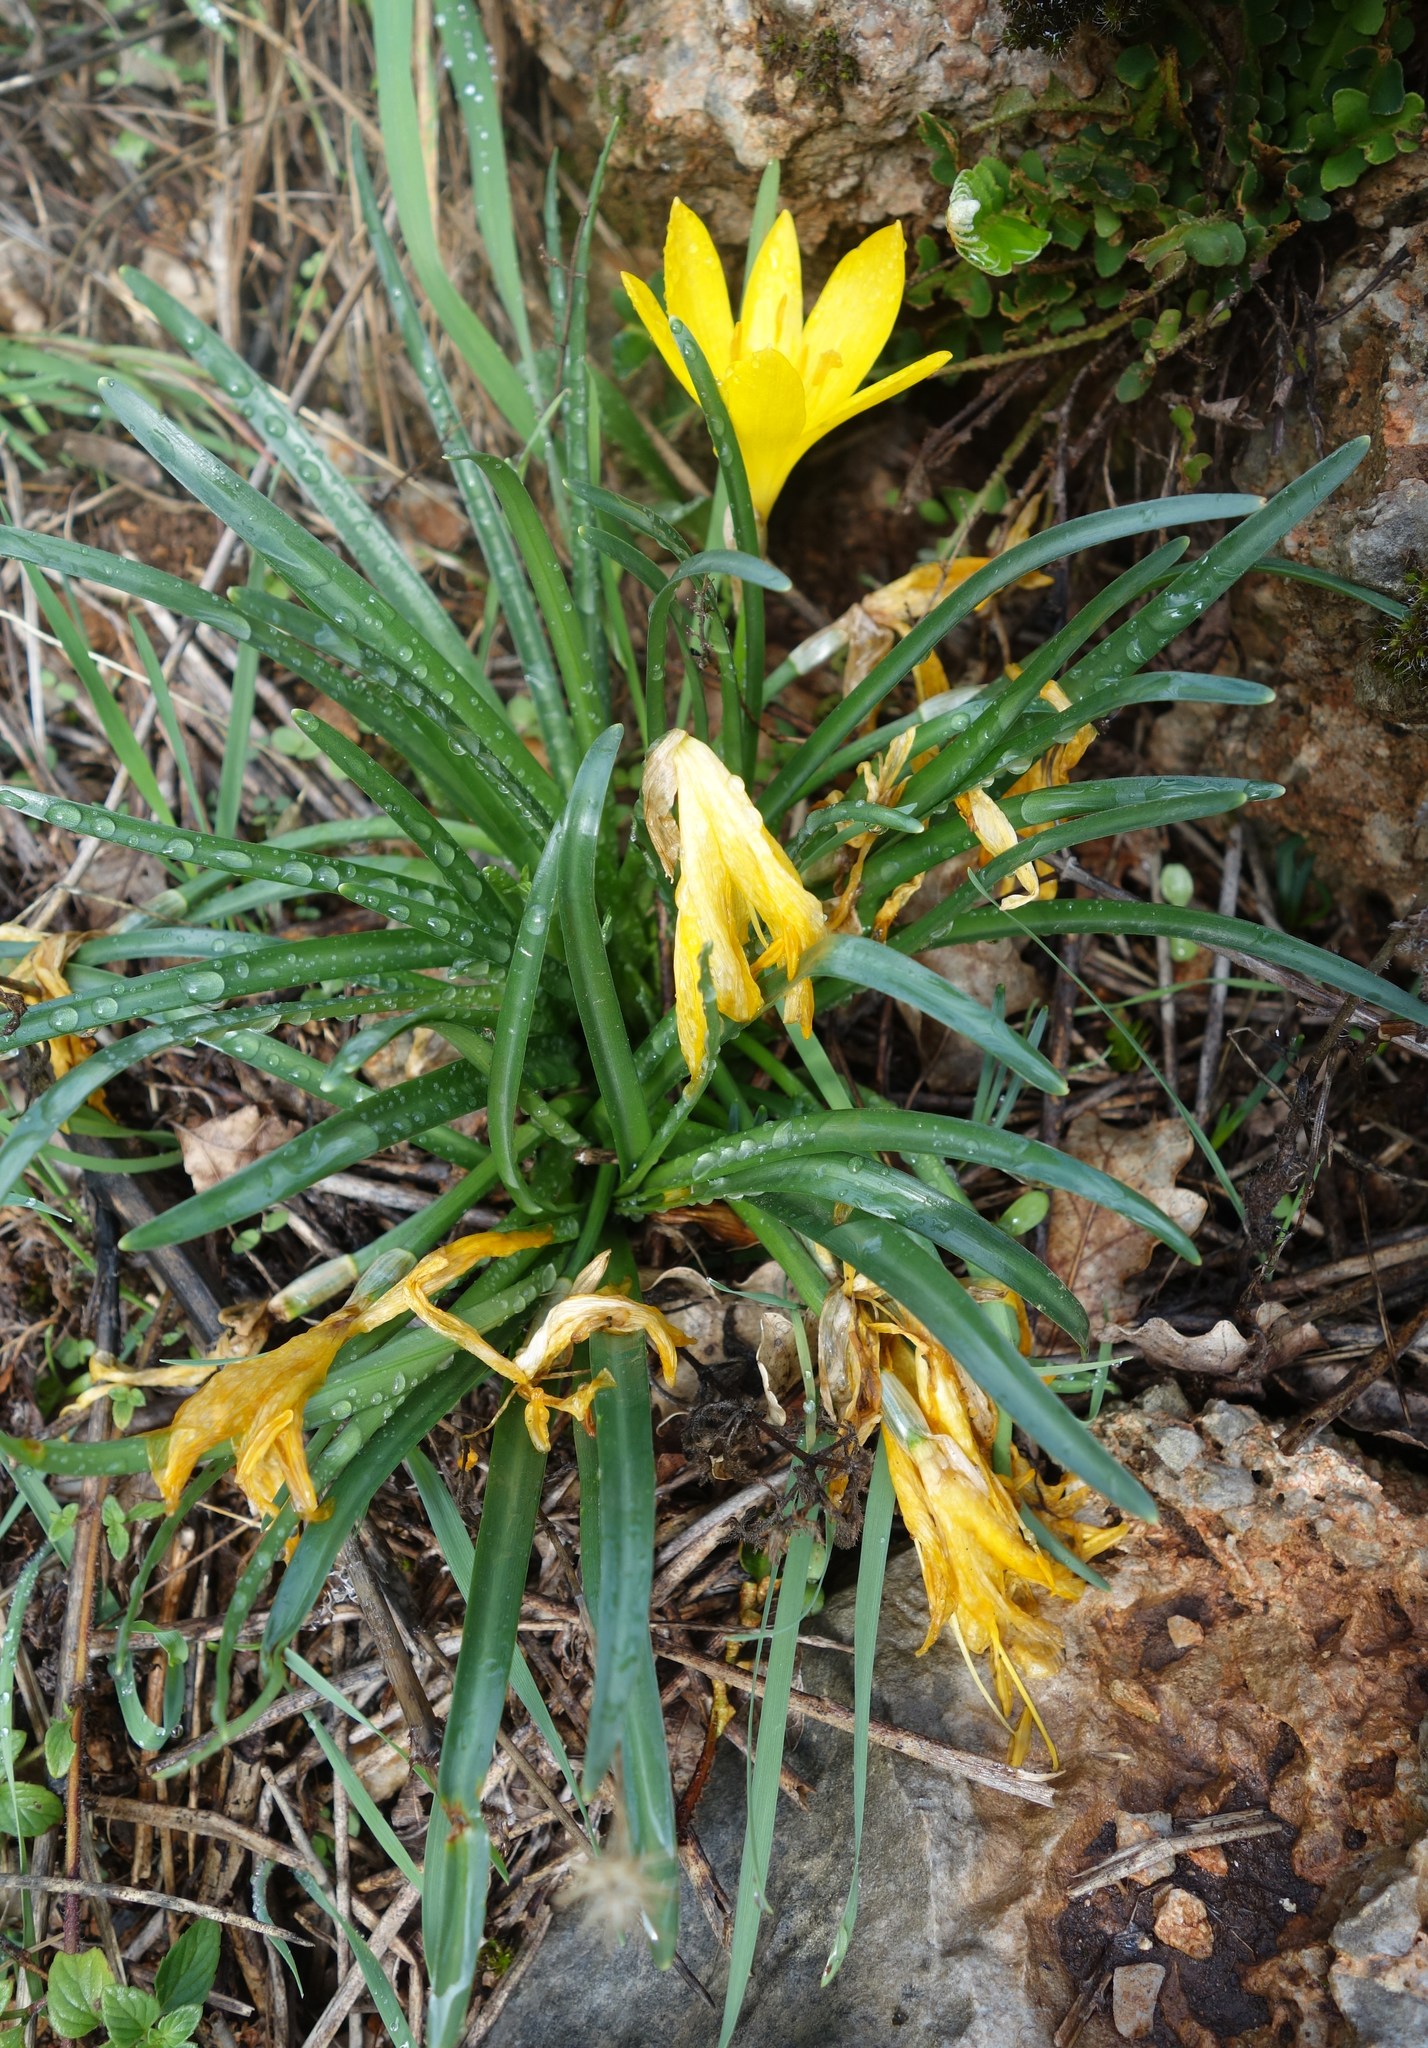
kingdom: Plantae
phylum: Tracheophyta
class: Liliopsida
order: Asparagales
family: Amaryllidaceae
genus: Sternbergia
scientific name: Sternbergia lutea
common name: Winter daffodil
